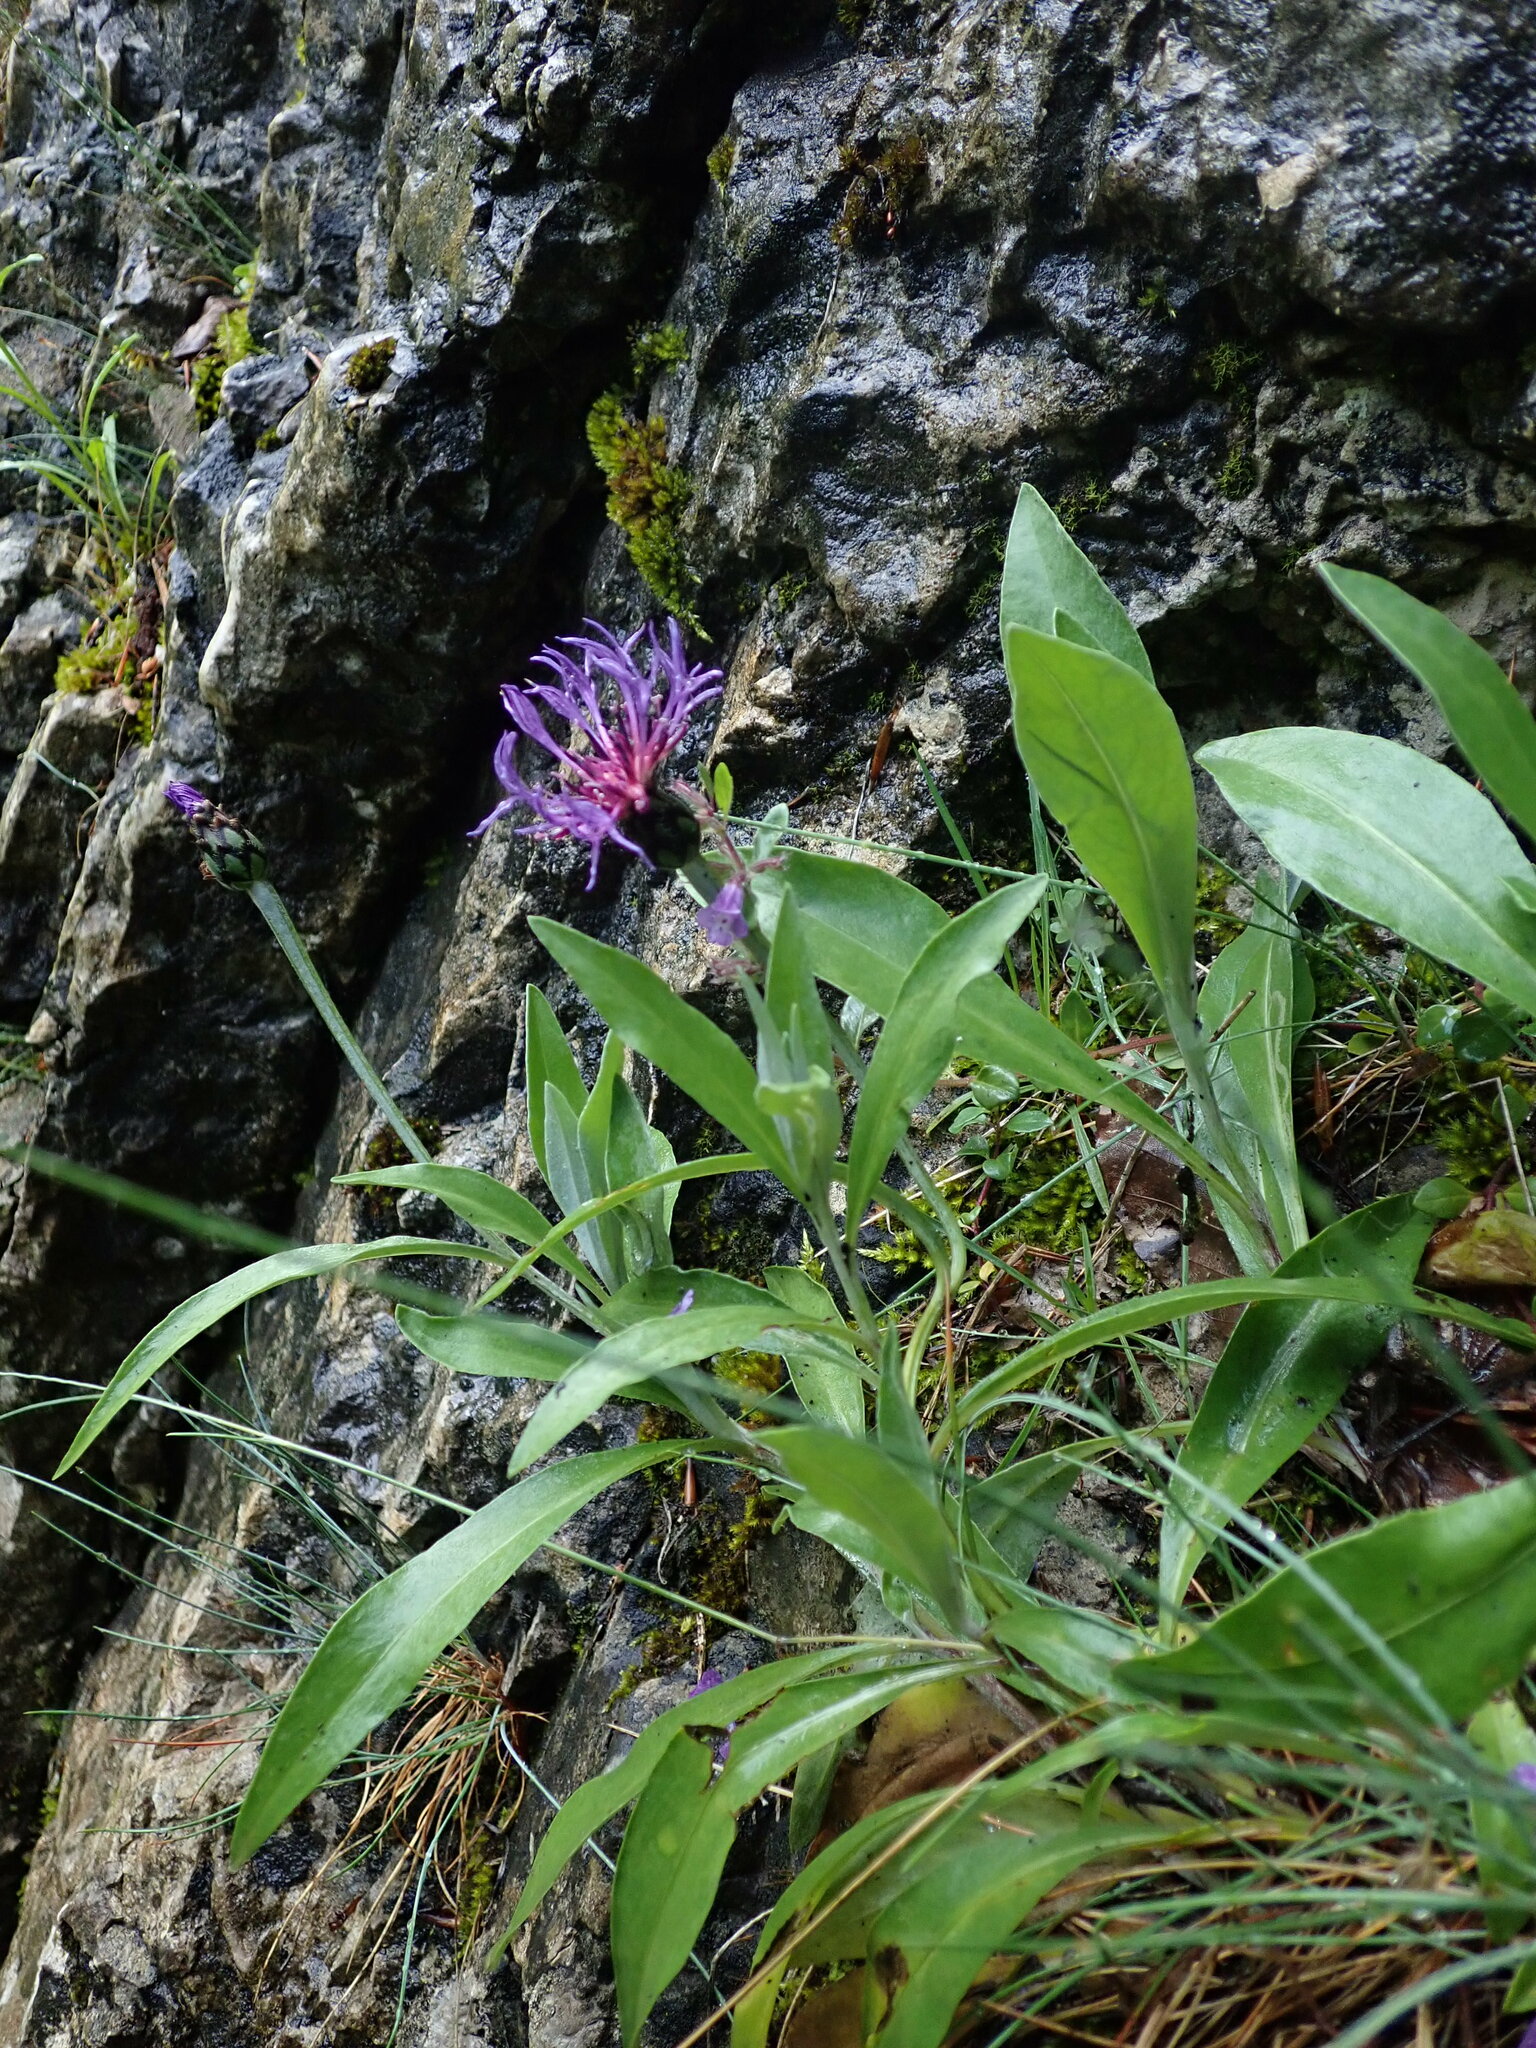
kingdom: Plantae
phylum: Tracheophyta
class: Magnoliopsida
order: Asterales
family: Asteraceae
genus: Centaurea
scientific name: Centaurea montana
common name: Perennial cornflower
